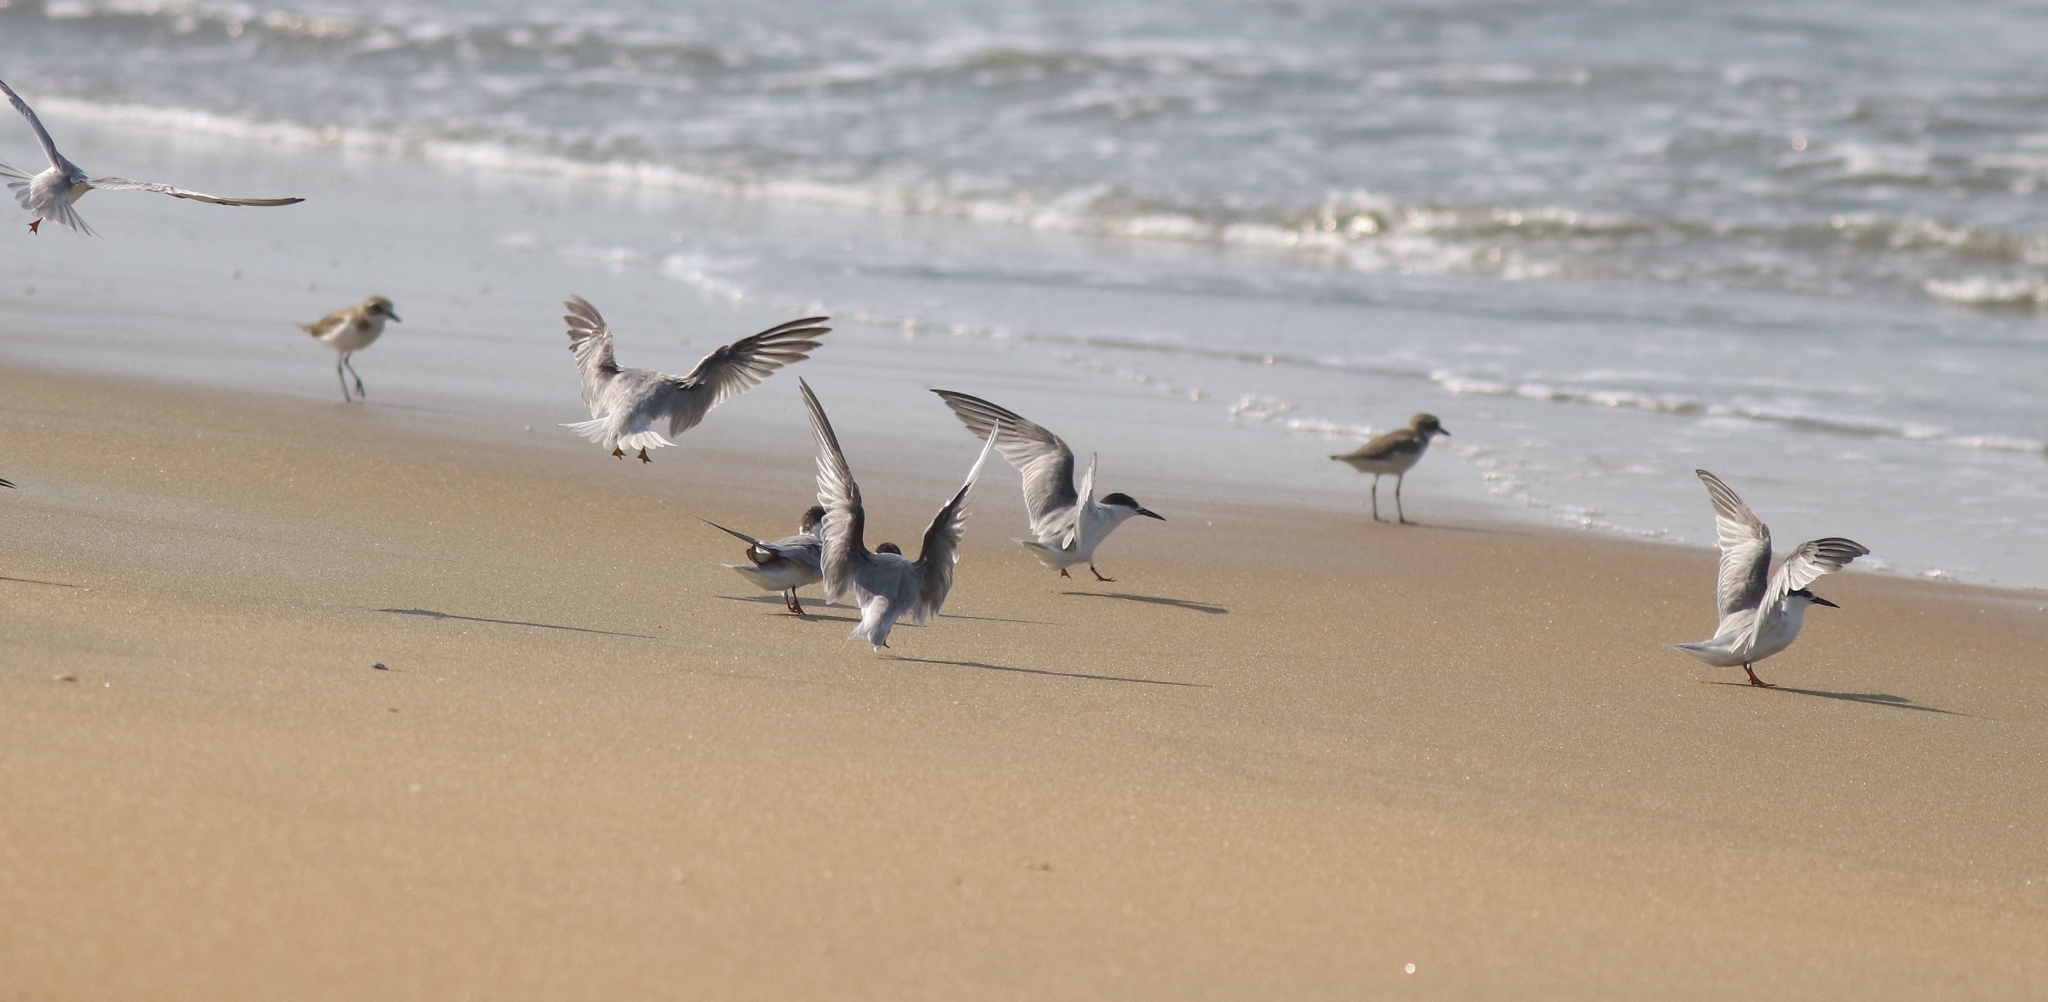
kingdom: Animalia
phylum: Chordata
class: Aves
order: Charadriiformes
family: Laridae
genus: Sternula
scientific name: Sternula albifrons
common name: Little tern
